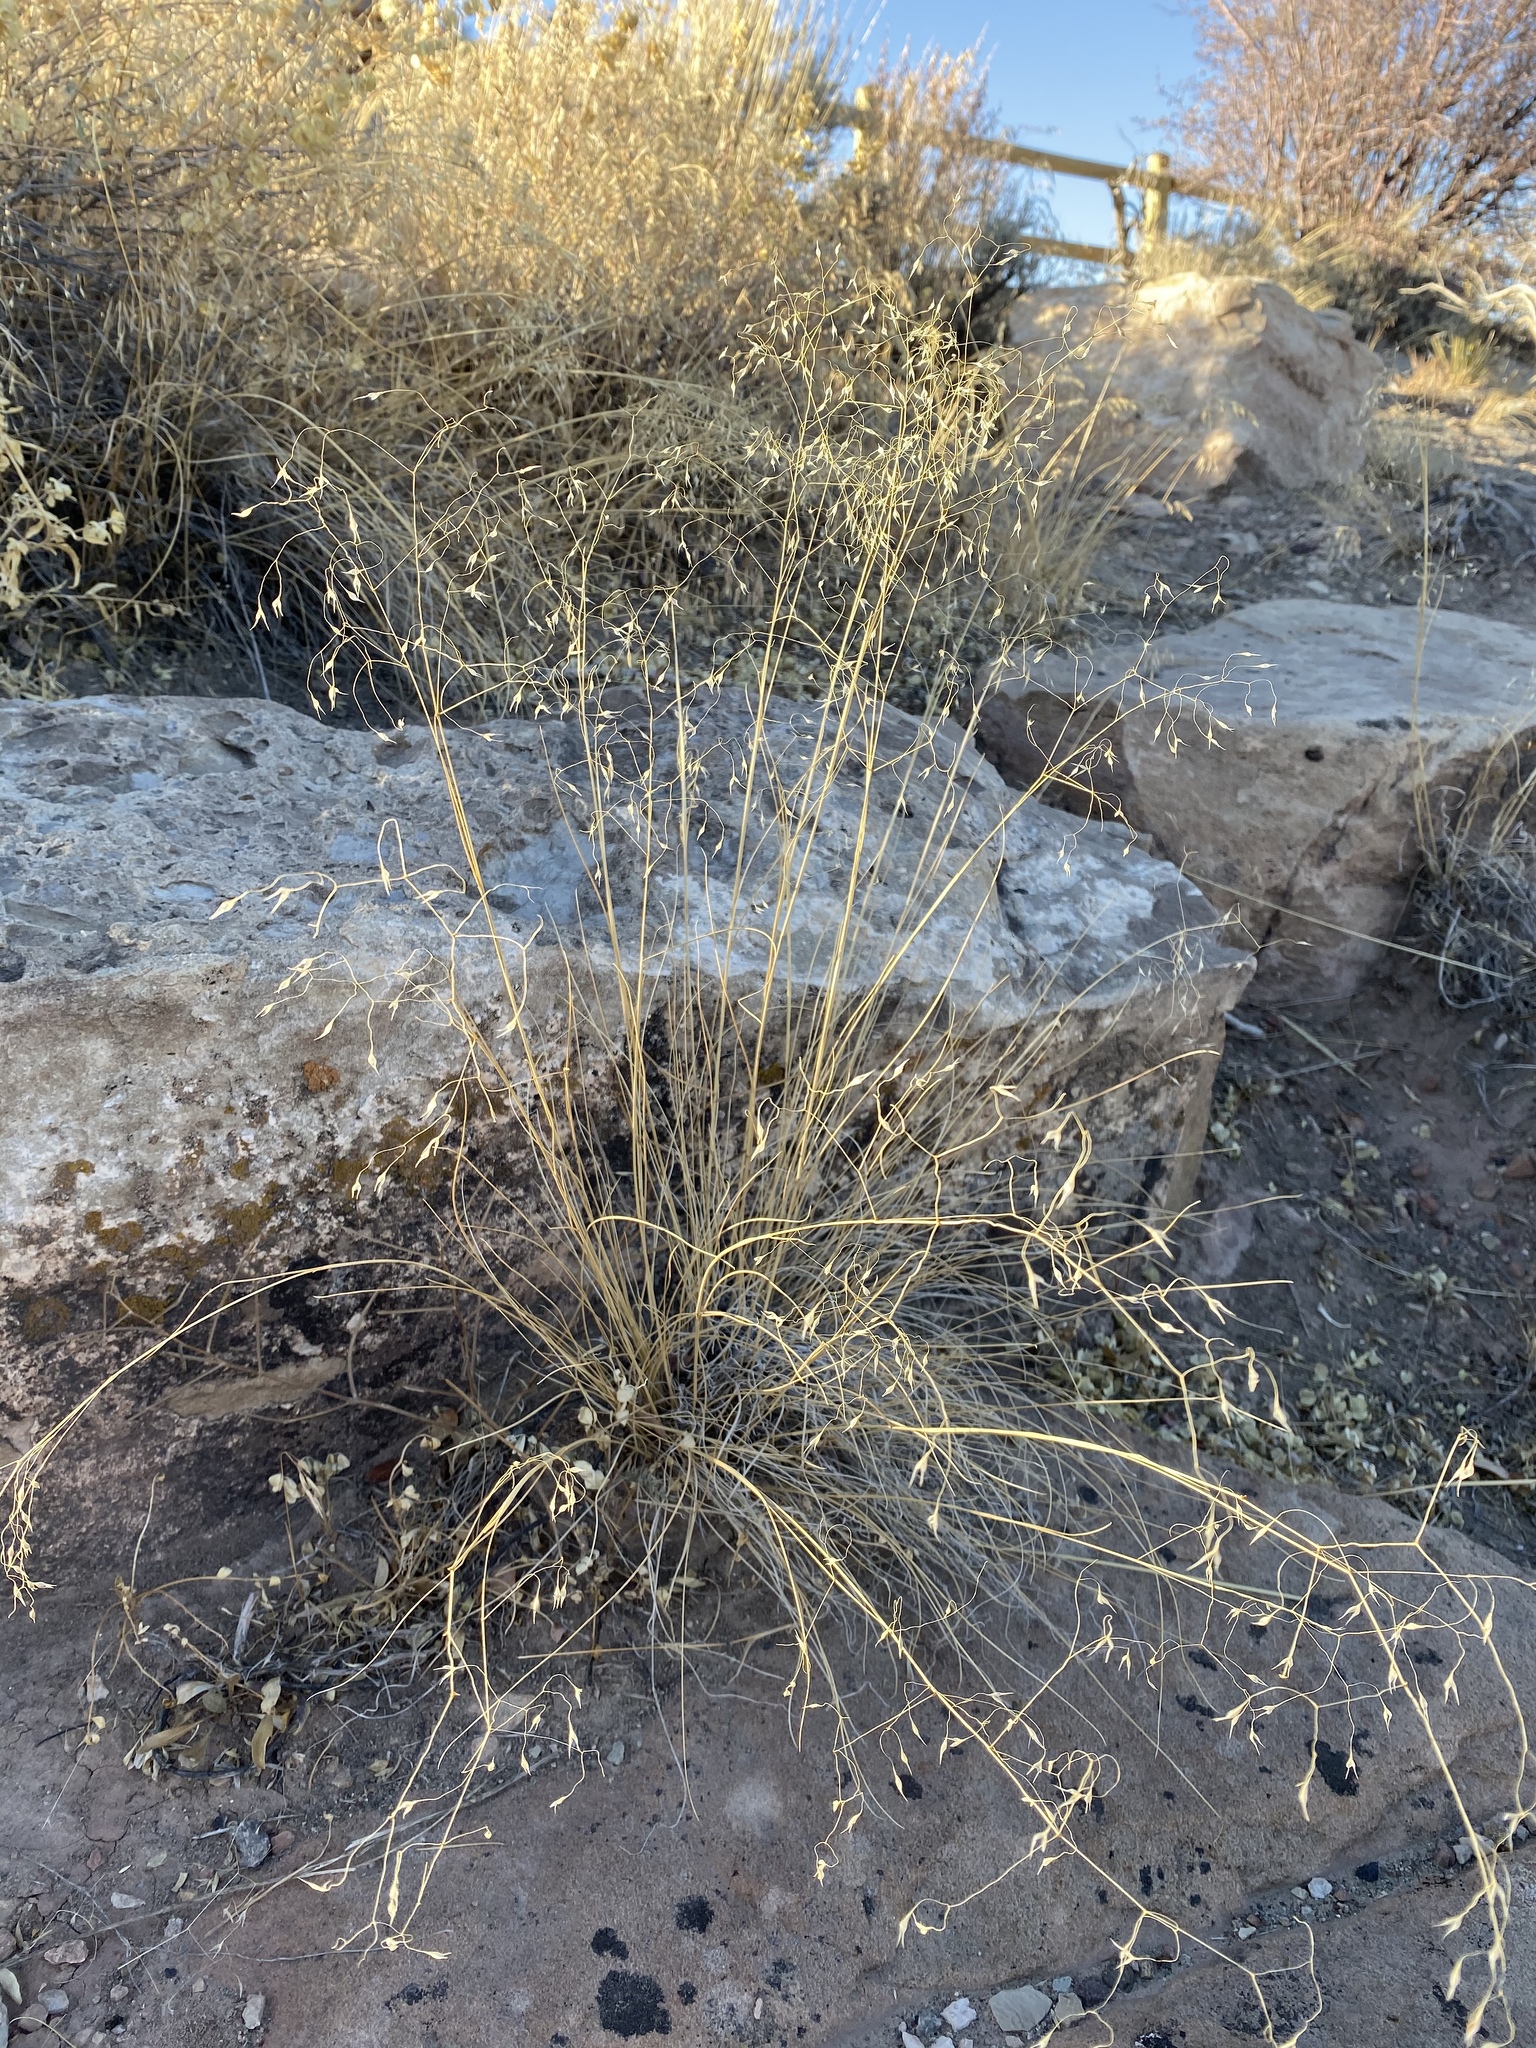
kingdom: Plantae
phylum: Tracheophyta
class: Liliopsida
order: Poales
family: Poaceae
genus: Eriocoma
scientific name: Eriocoma hymenoides
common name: Indian mountain ricegrass
